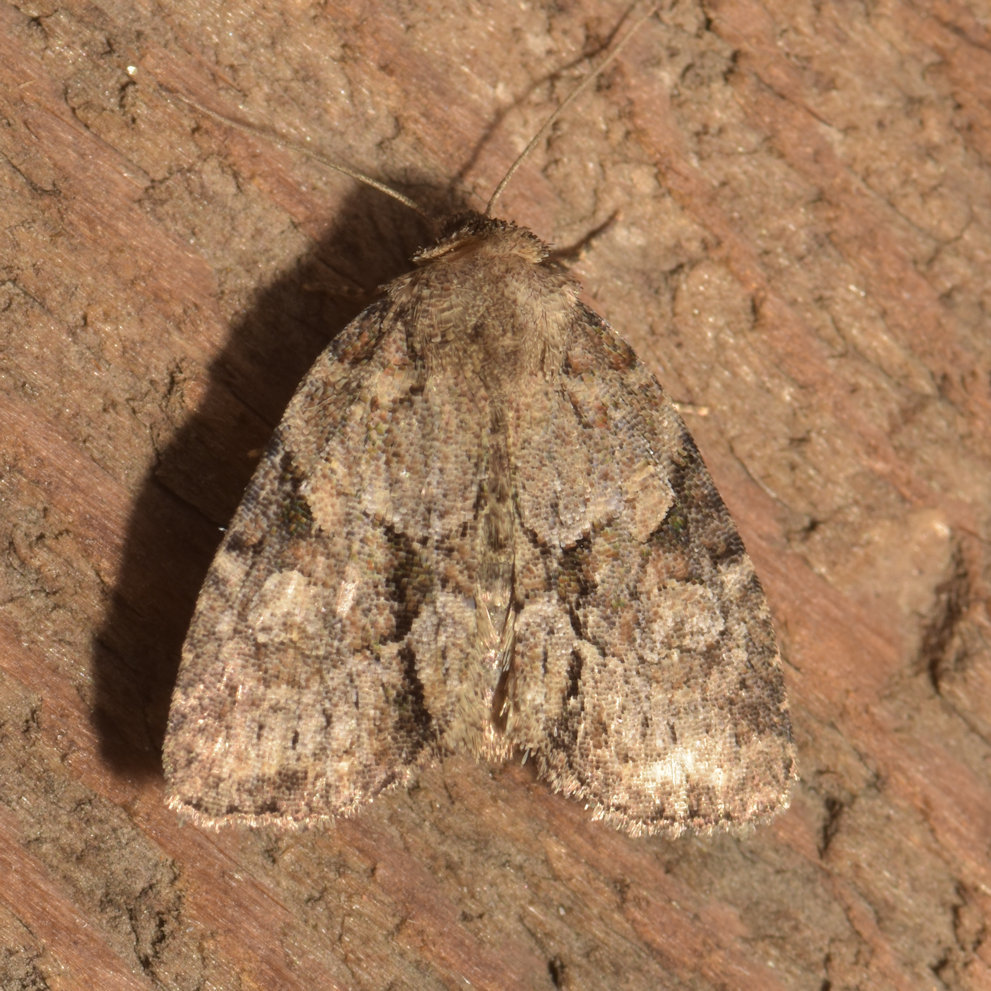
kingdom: Animalia
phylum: Arthropoda
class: Insecta
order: Lepidoptera
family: Noctuidae
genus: Neoligia
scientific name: Neoligia exhausta
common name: Exhausted brocade
